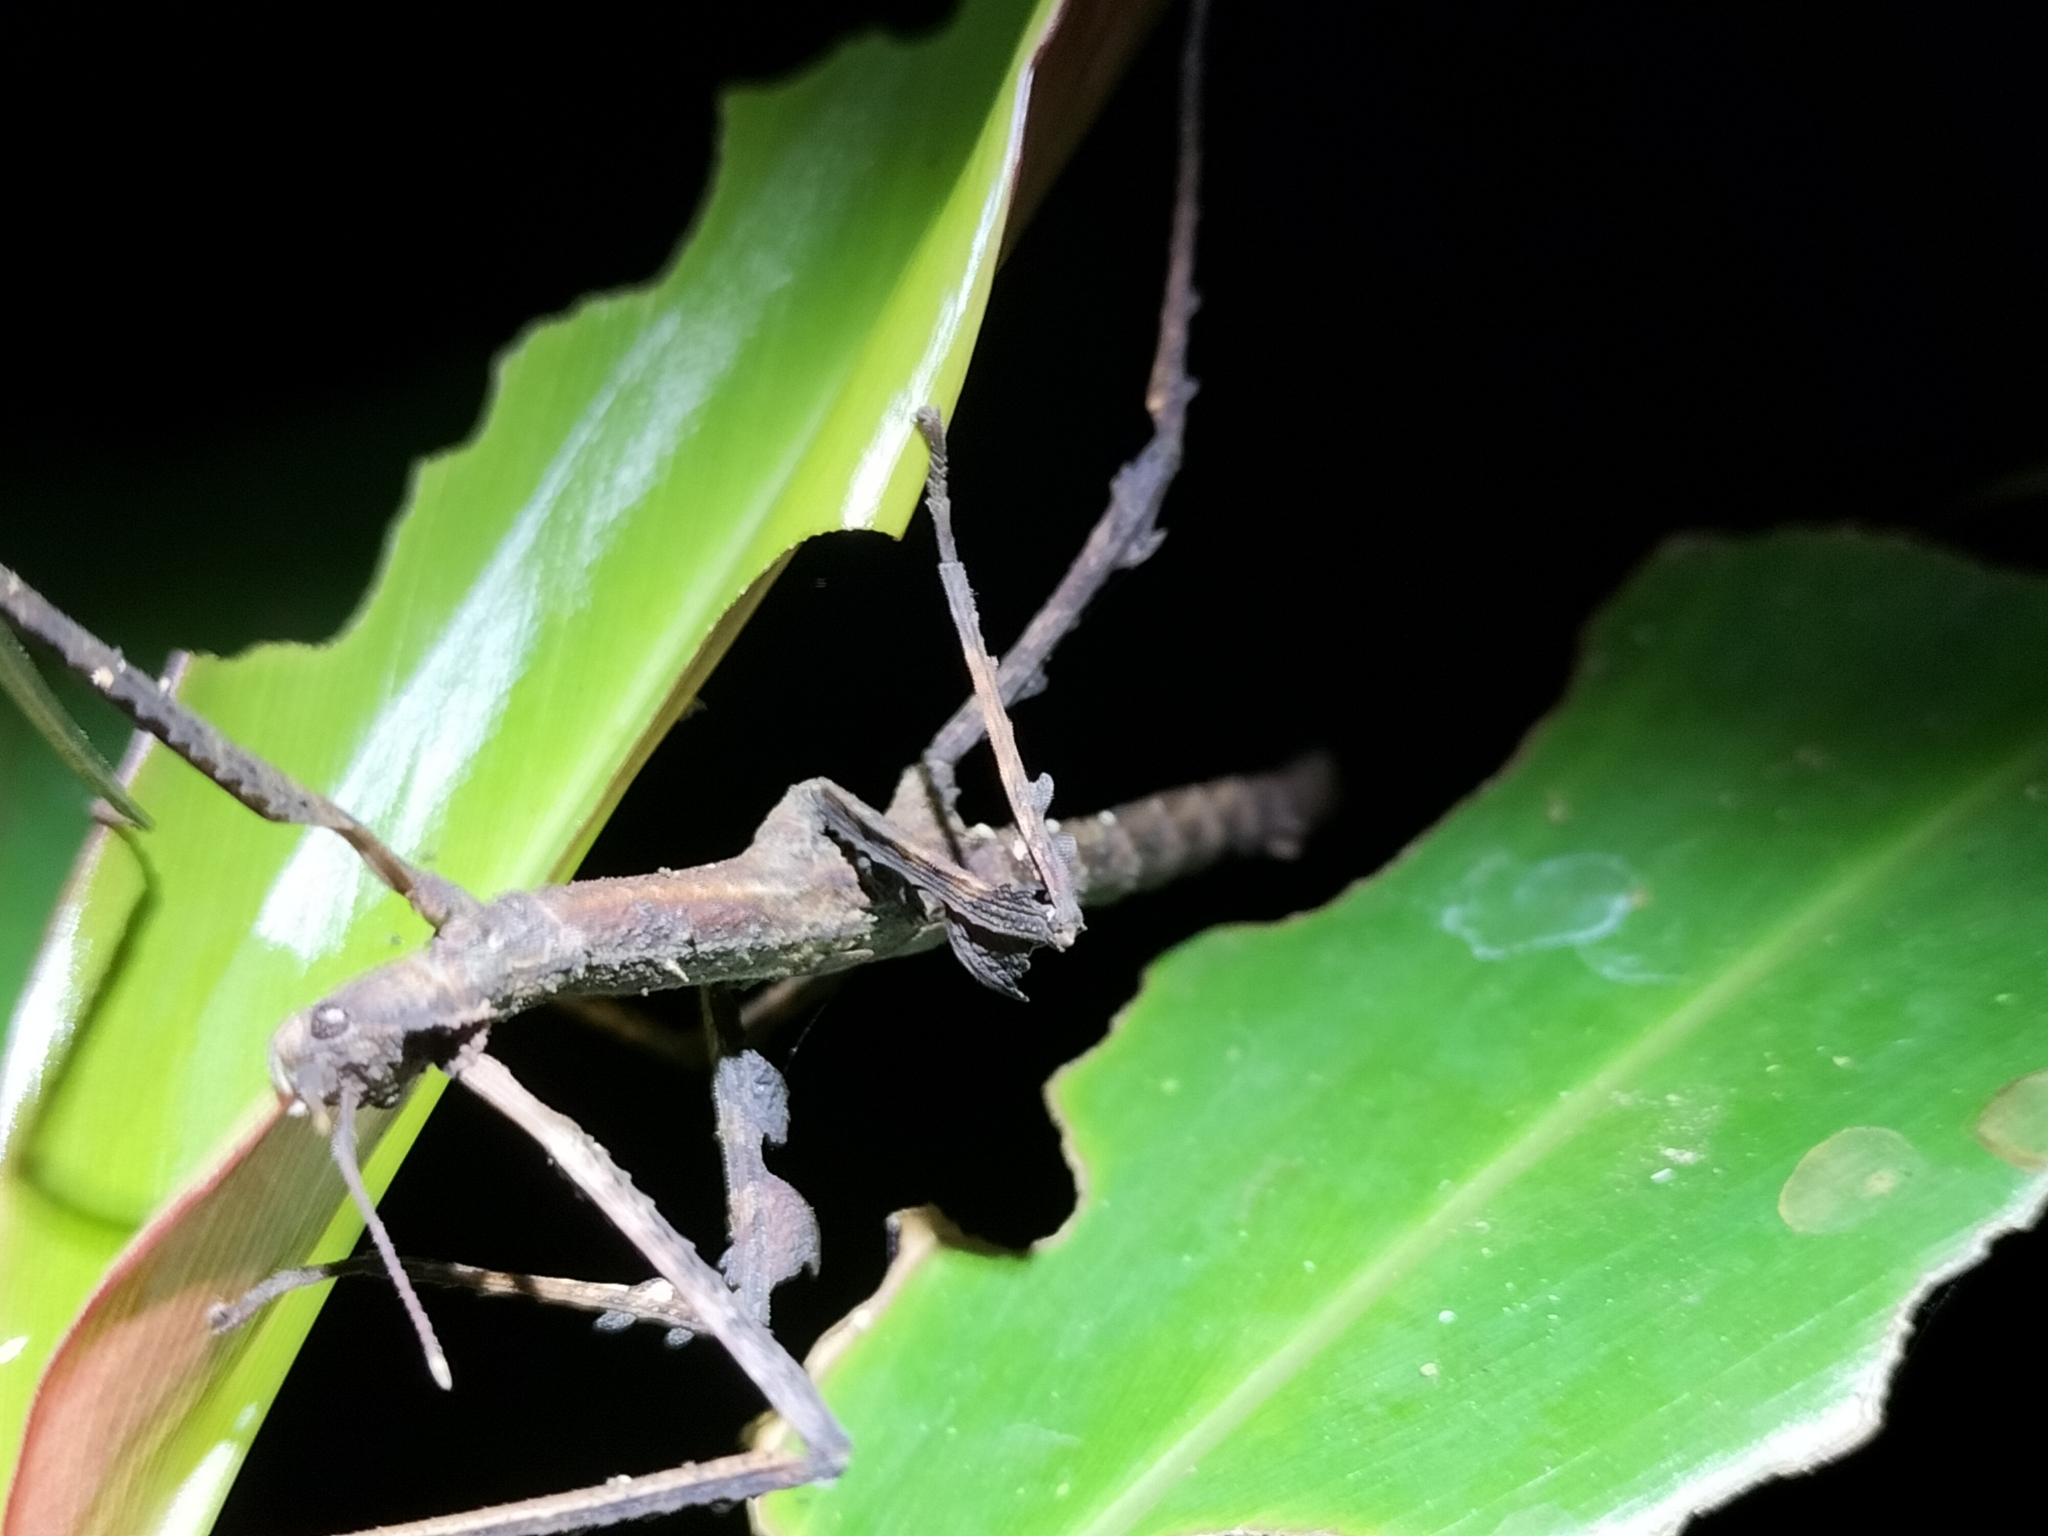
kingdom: Animalia
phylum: Arthropoda
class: Insecta
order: Phasmida
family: Phasmatidae
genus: Onchestus
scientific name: Onchestus rentzi
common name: Rentz's stick-insect
